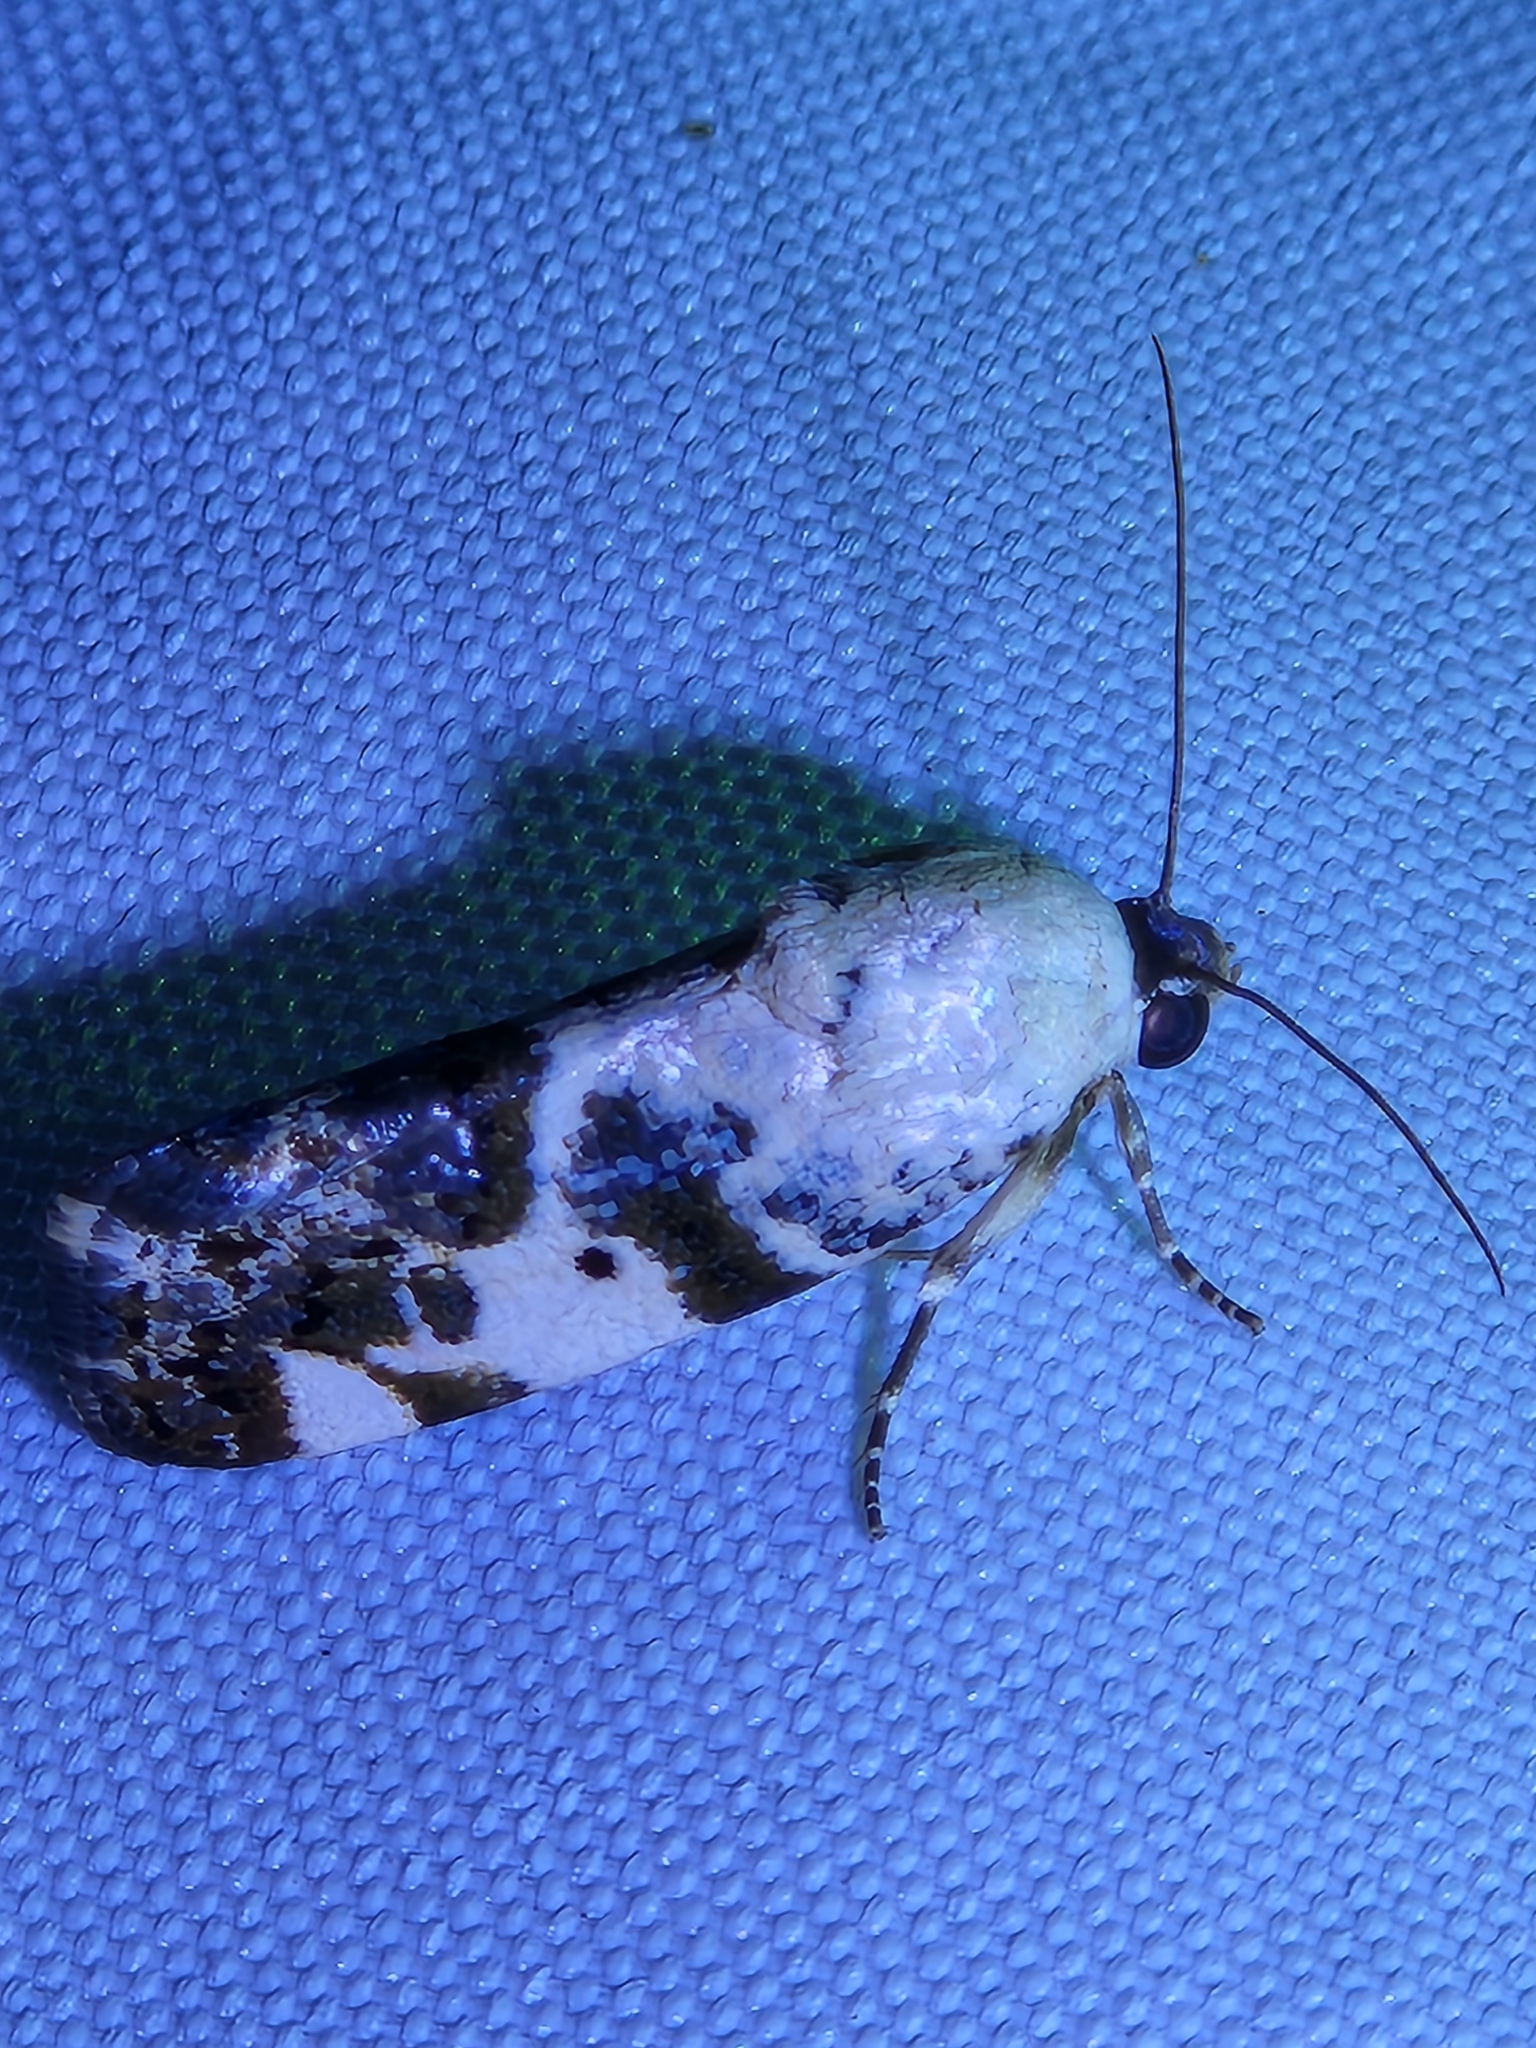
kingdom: Animalia
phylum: Arthropoda
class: Insecta
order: Lepidoptera
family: Noctuidae
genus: Acontia
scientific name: Acontia aprica
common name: Nun
